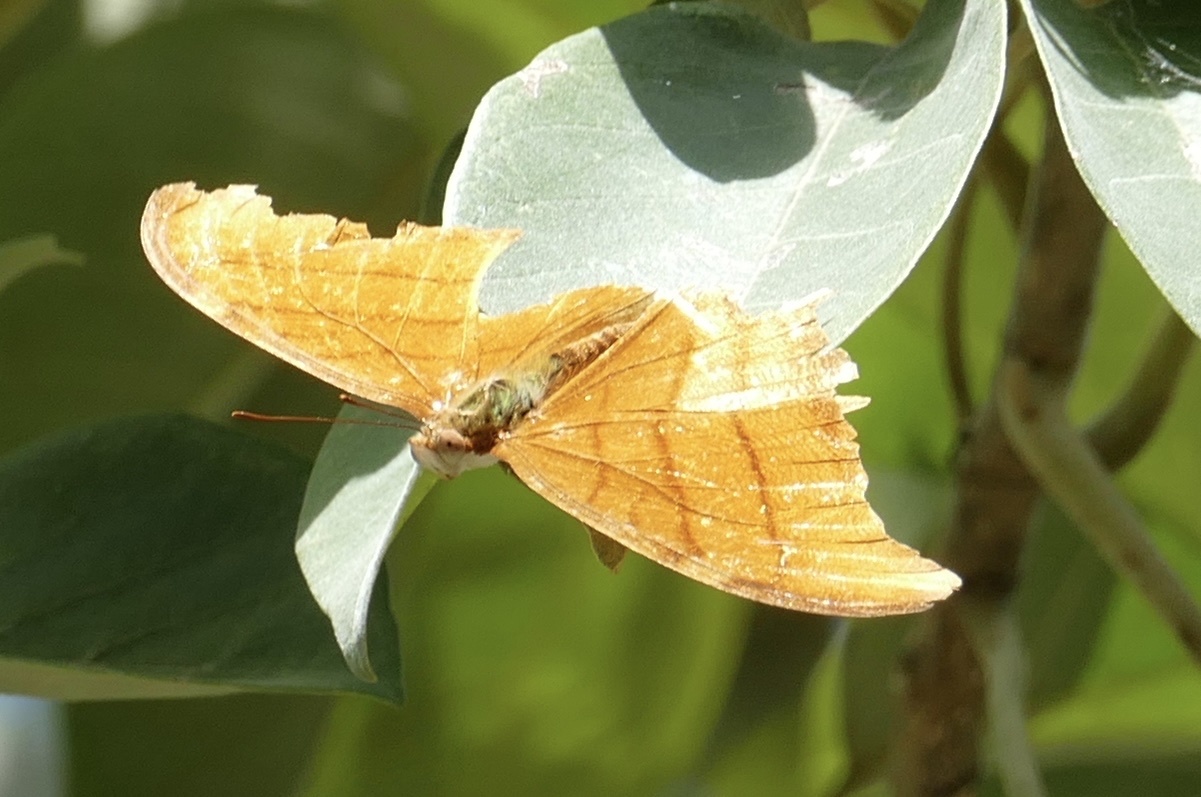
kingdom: Animalia
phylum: Arthropoda
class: Insecta
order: Lepidoptera
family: Nymphalidae
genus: Marpesia
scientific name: Marpesia petreus
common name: Red dagger wing
